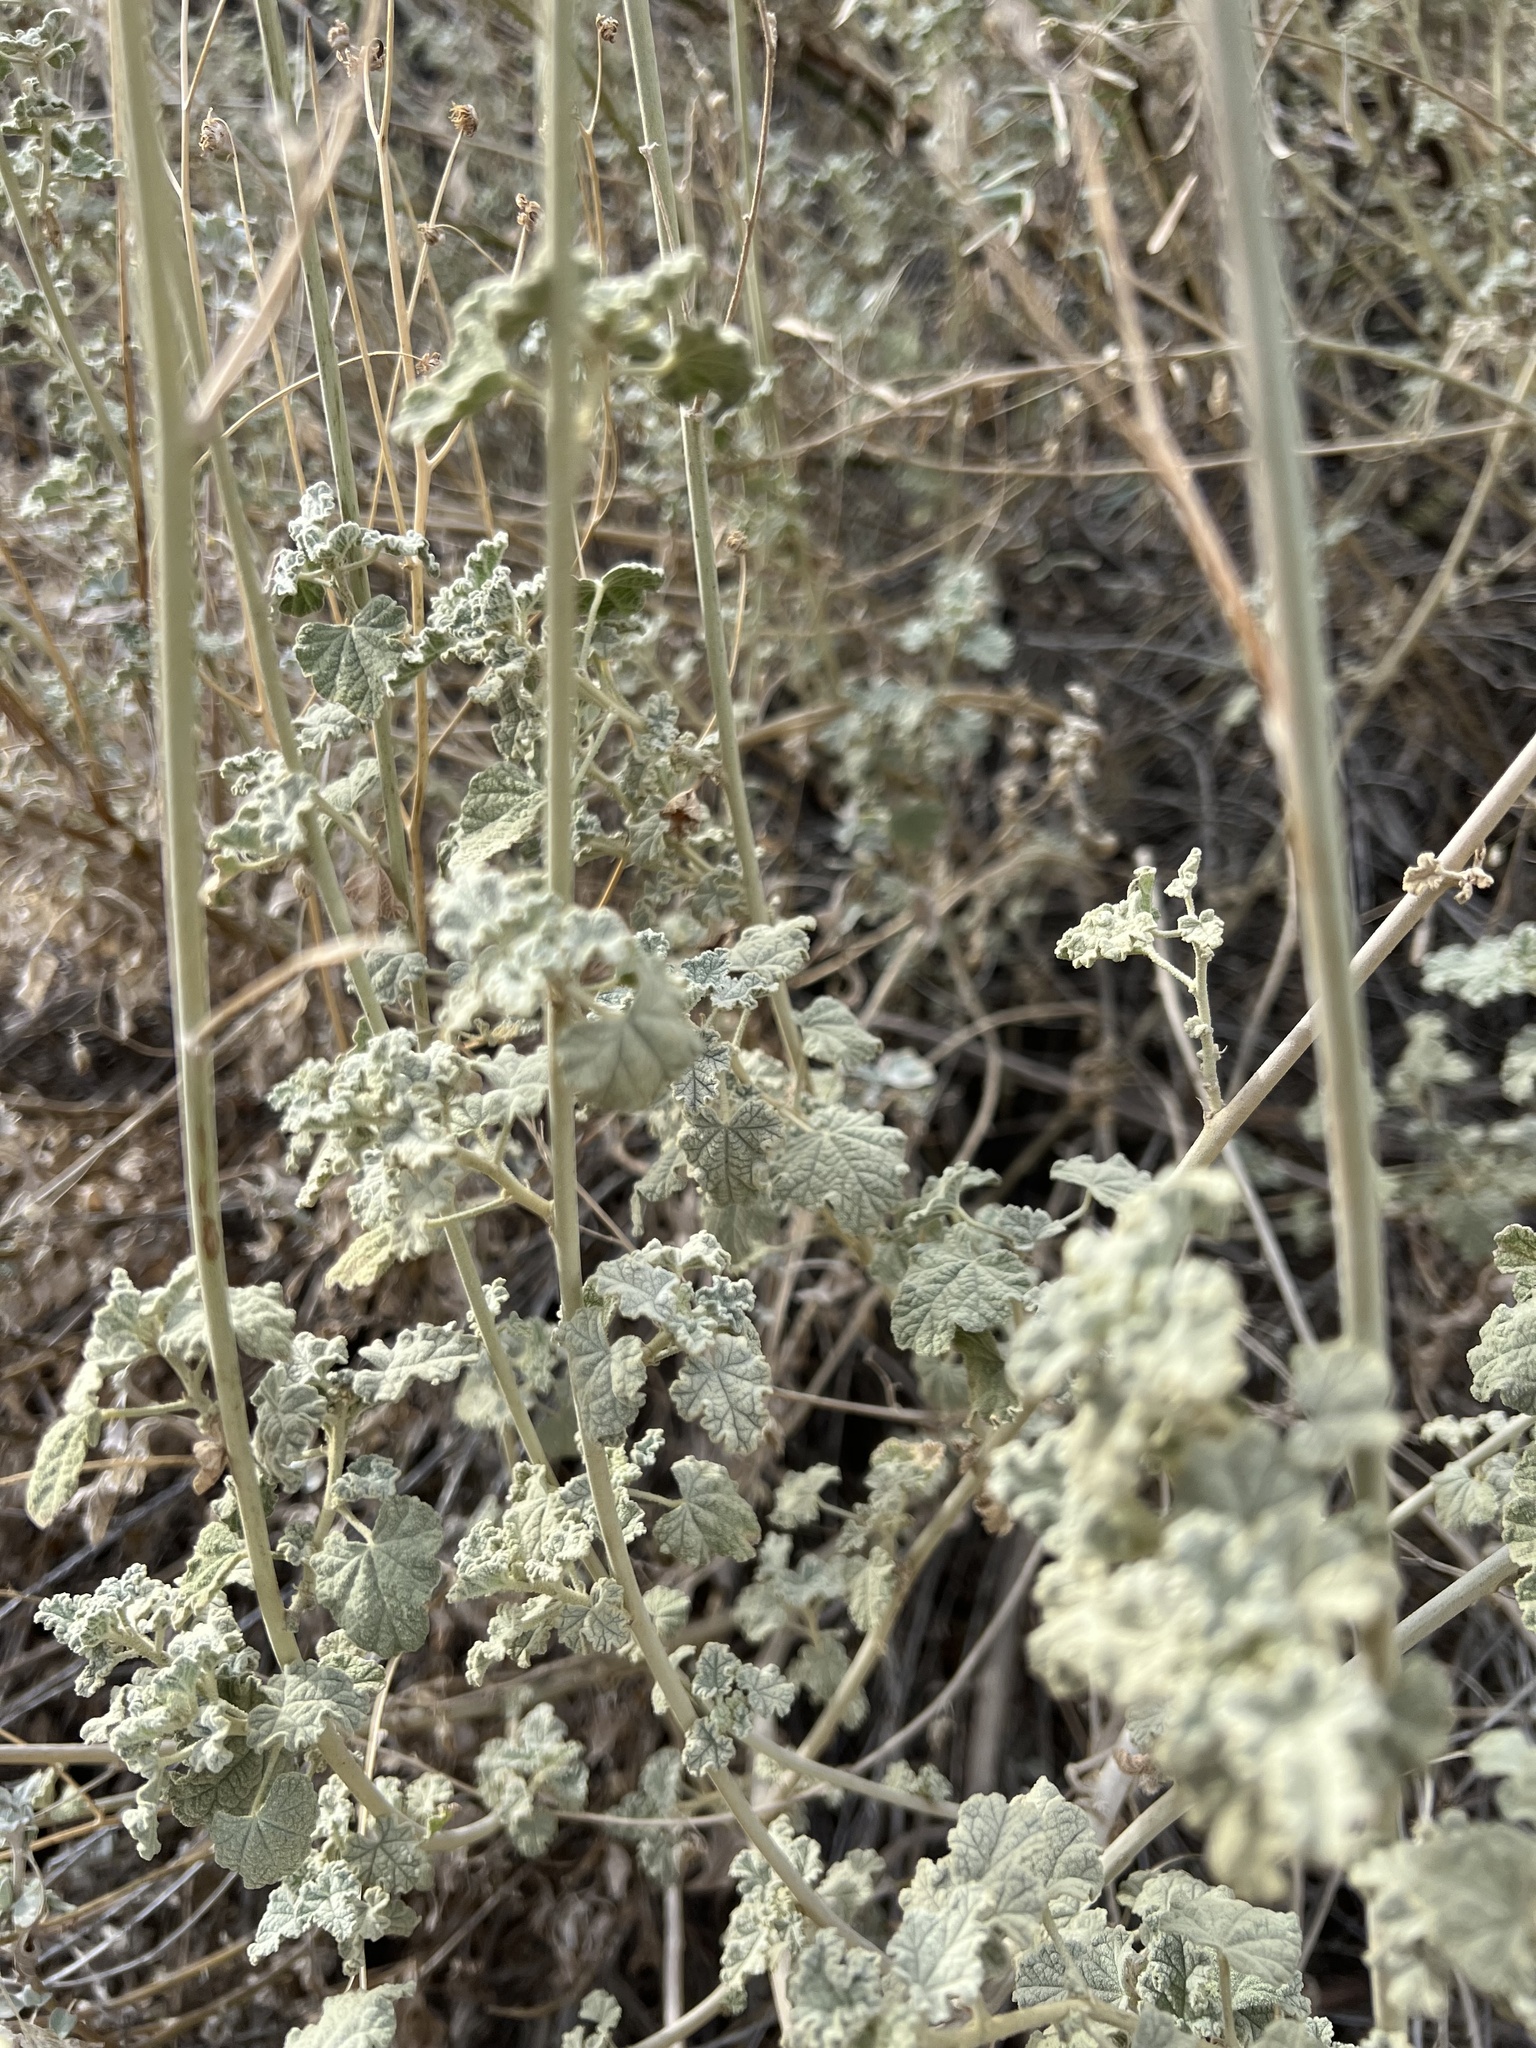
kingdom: Plantae
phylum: Tracheophyta
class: Magnoliopsida
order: Malvales
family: Malvaceae
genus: Sphaeralcea
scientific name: Sphaeralcea ambigua
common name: Apricot globe-mallow
